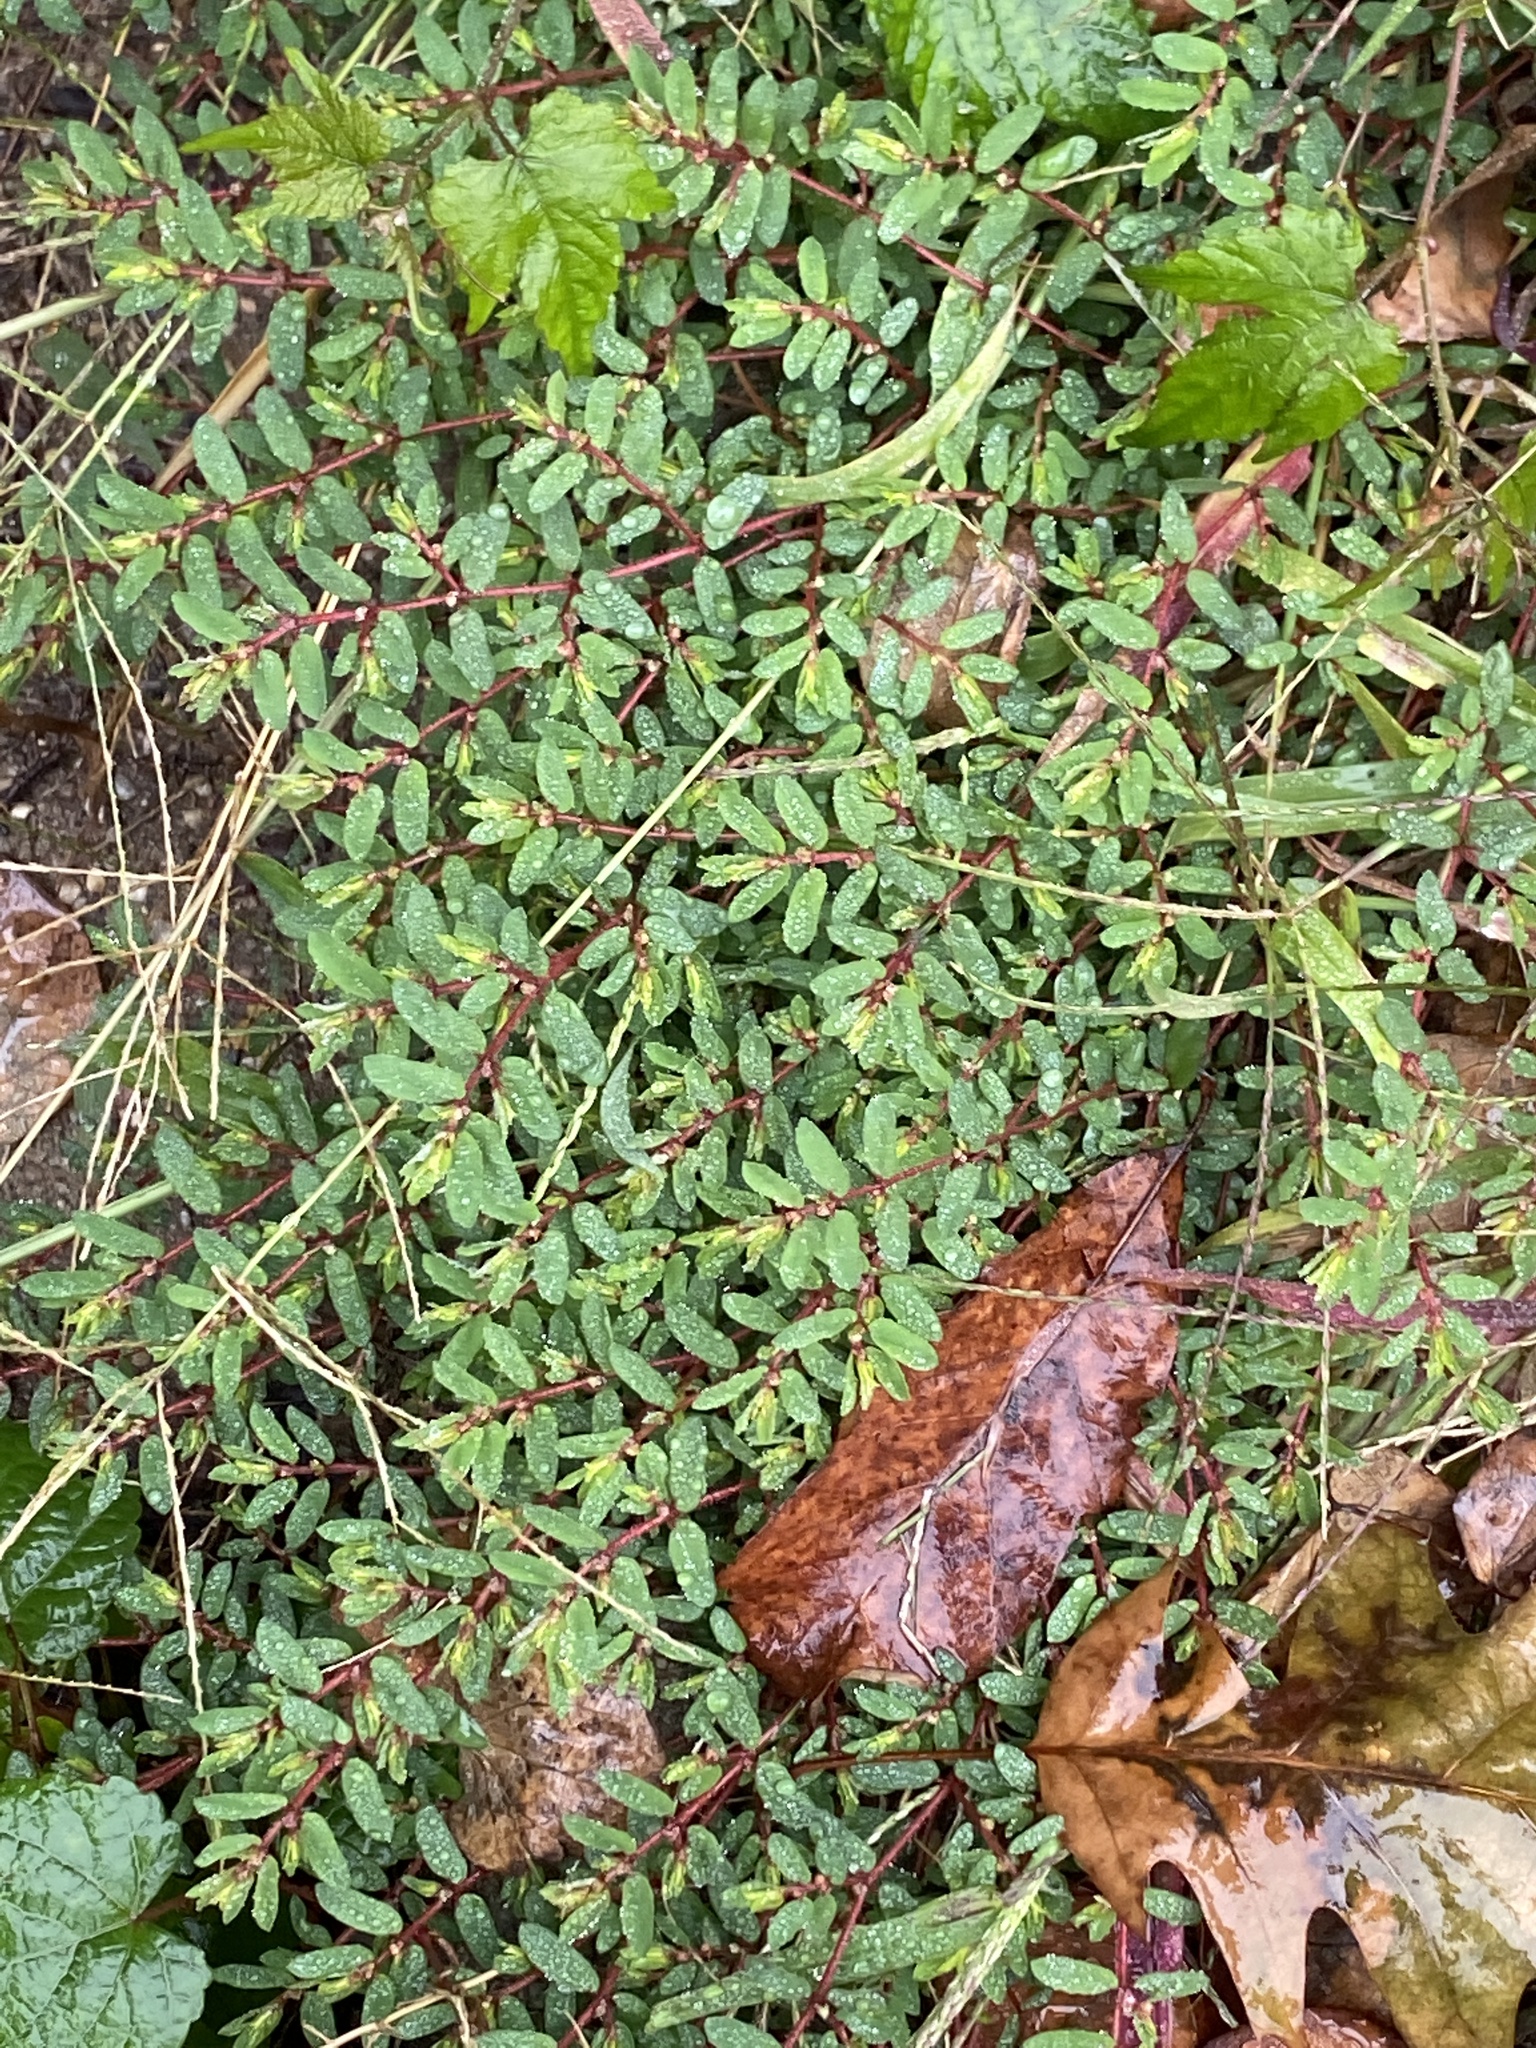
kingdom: Plantae
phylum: Tracheophyta
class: Magnoliopsida
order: Malpighiales
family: Euphorbiaceae
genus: Euphorbia
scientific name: Euphorbia maculata
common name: Spotted spurge
